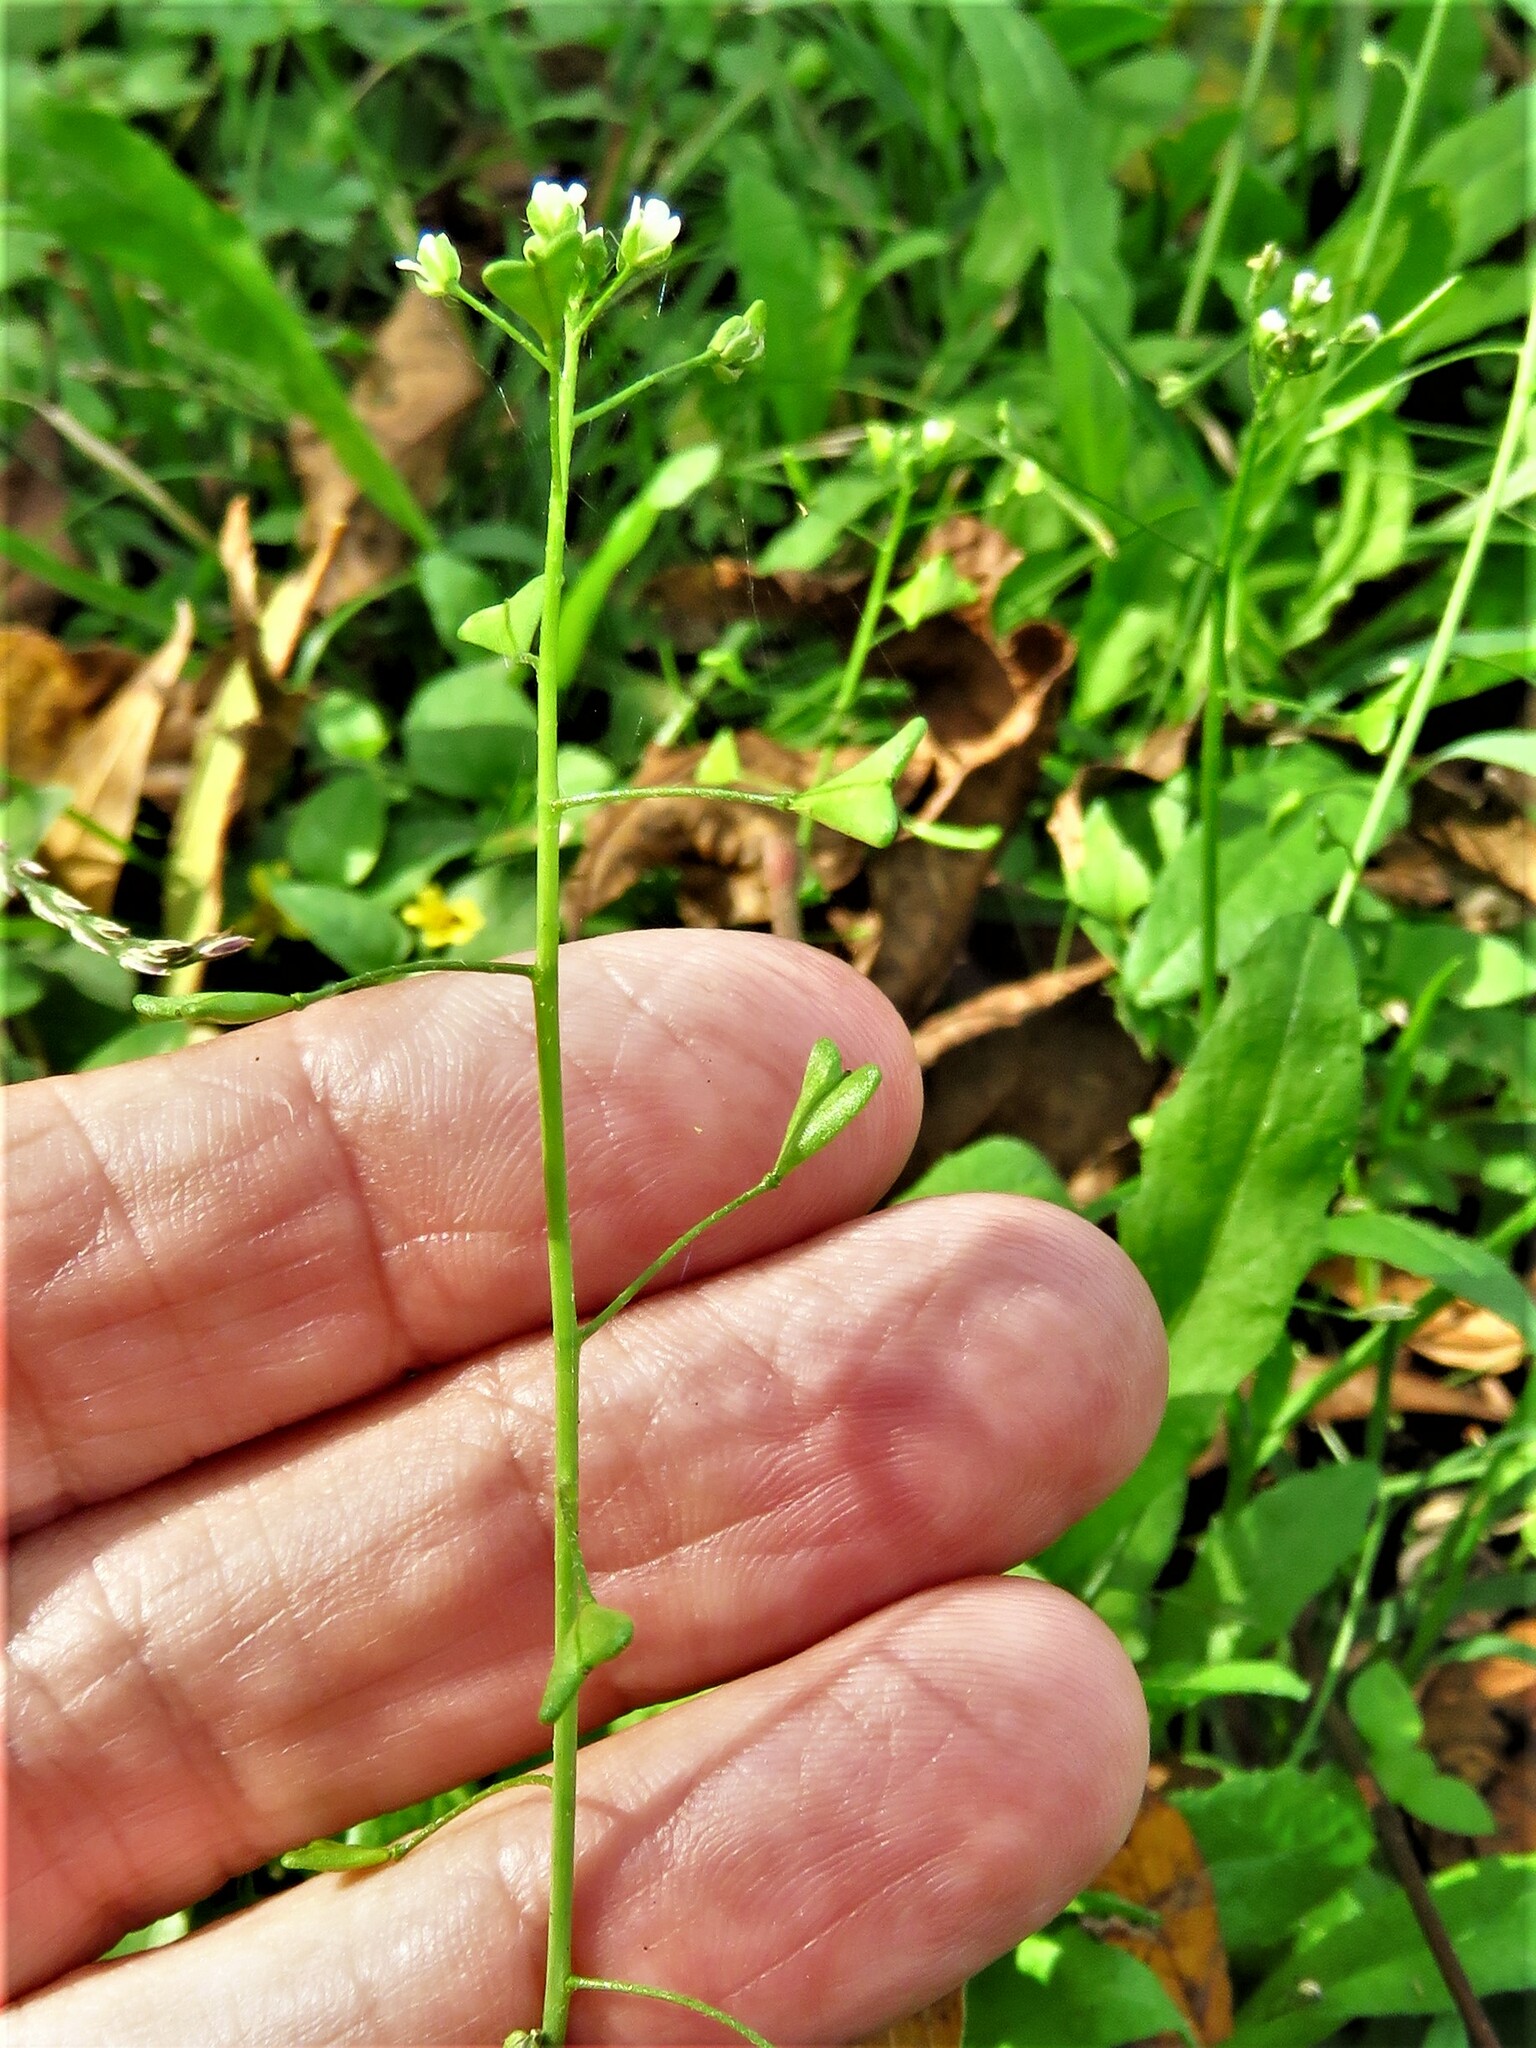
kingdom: Plantae
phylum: Tracheophyta
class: Magnoliopsida
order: Brassicales
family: Brassicaceae
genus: Capsella
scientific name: Capsella bursa-pastoris
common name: Shepherd's purse
